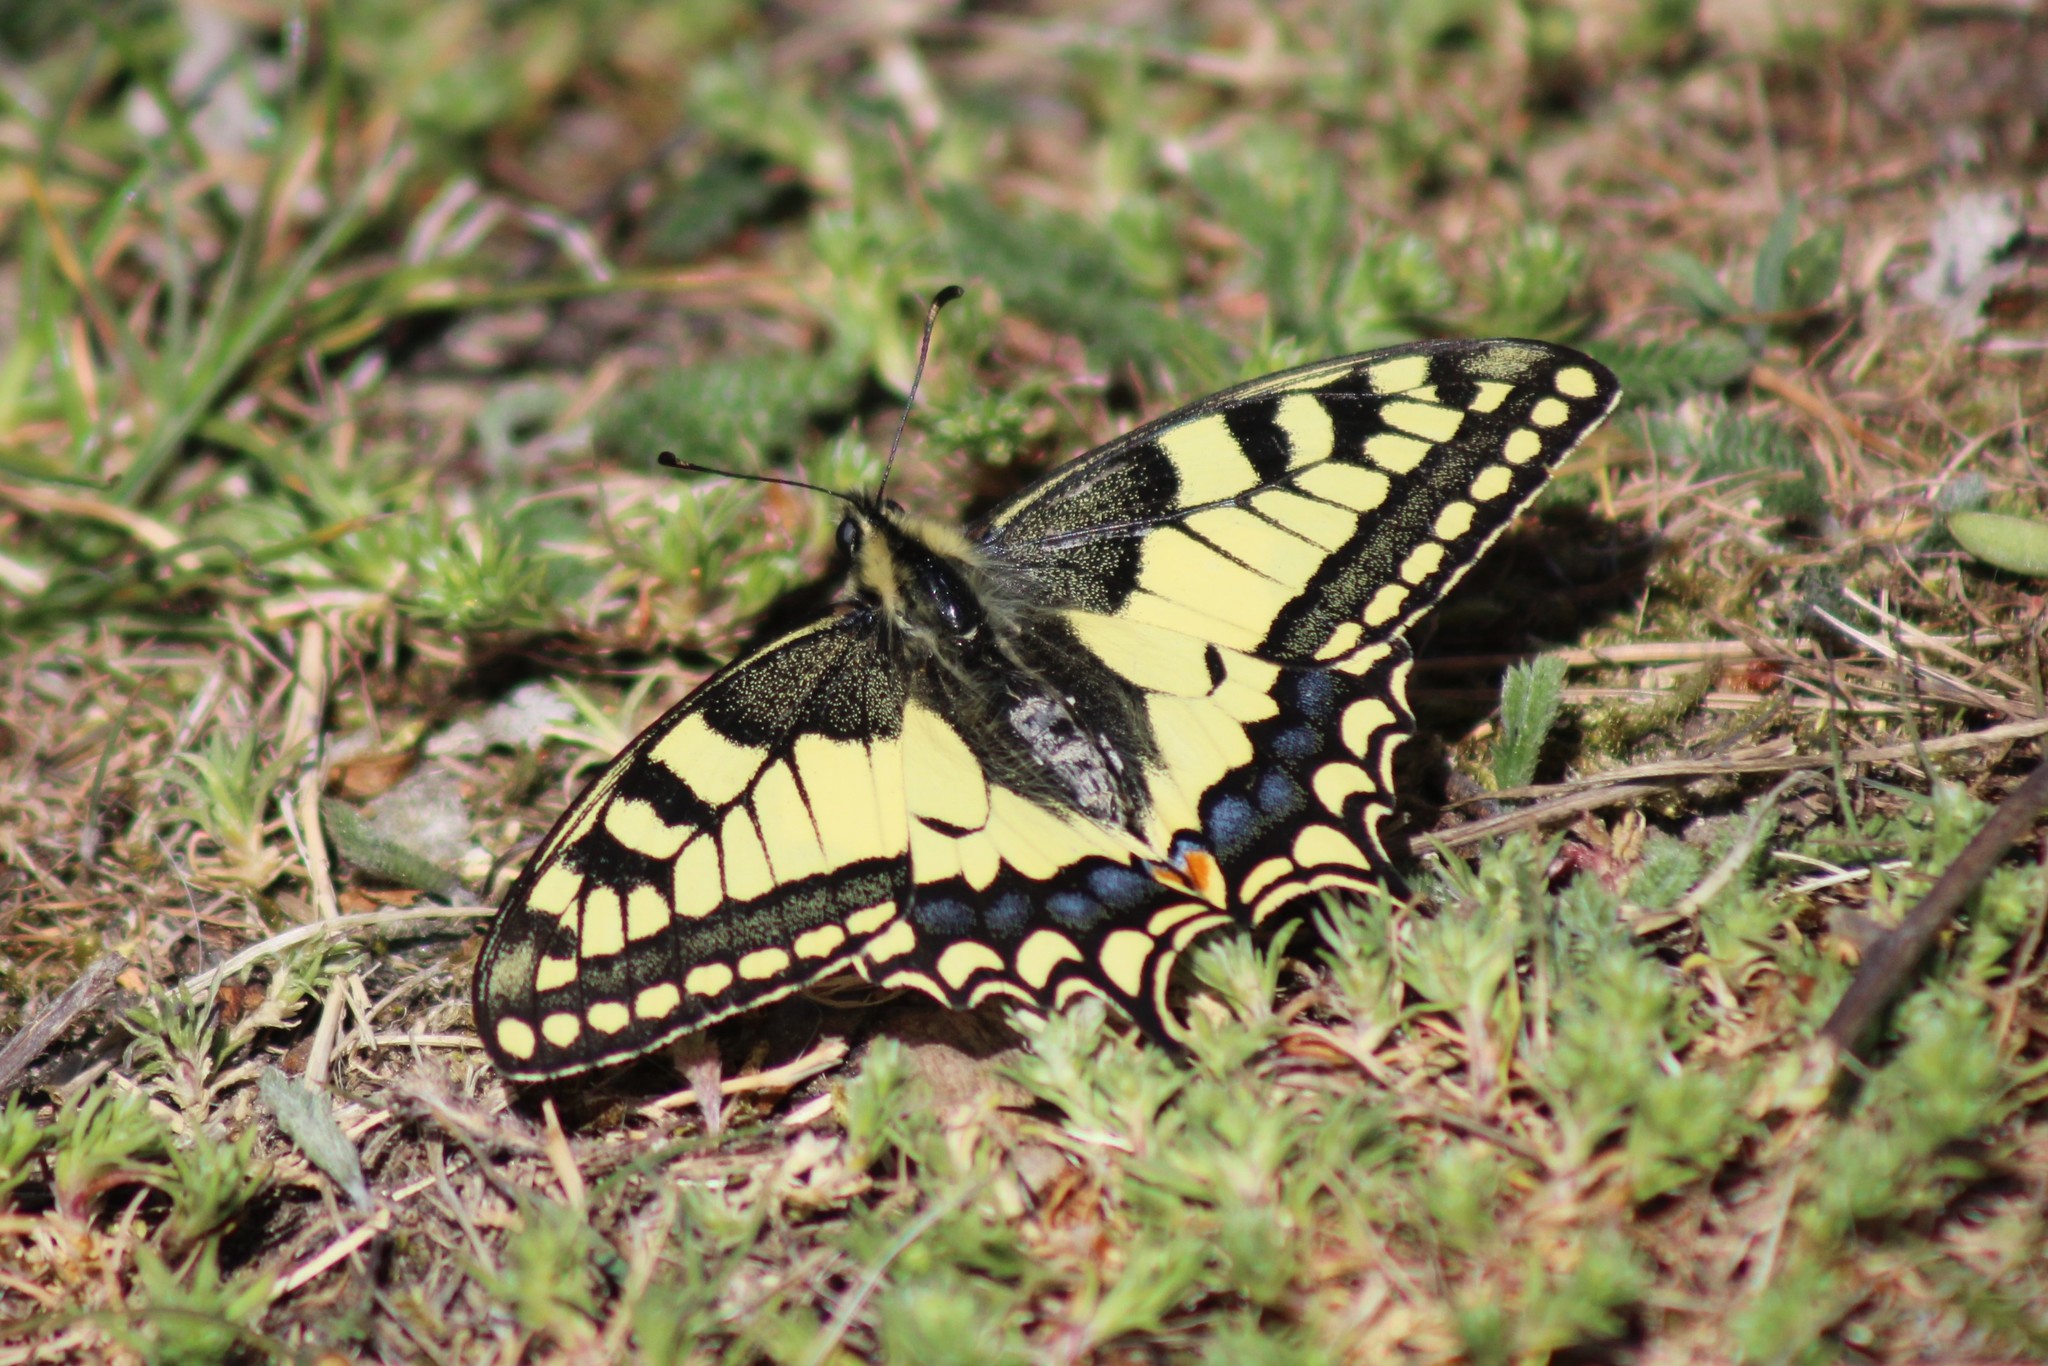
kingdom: Animalia
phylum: Arthropoda
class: Insecta
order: Lepidoptera
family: Papilionidae
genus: Papilio
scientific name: Papilio machaon
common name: Swallowtail
